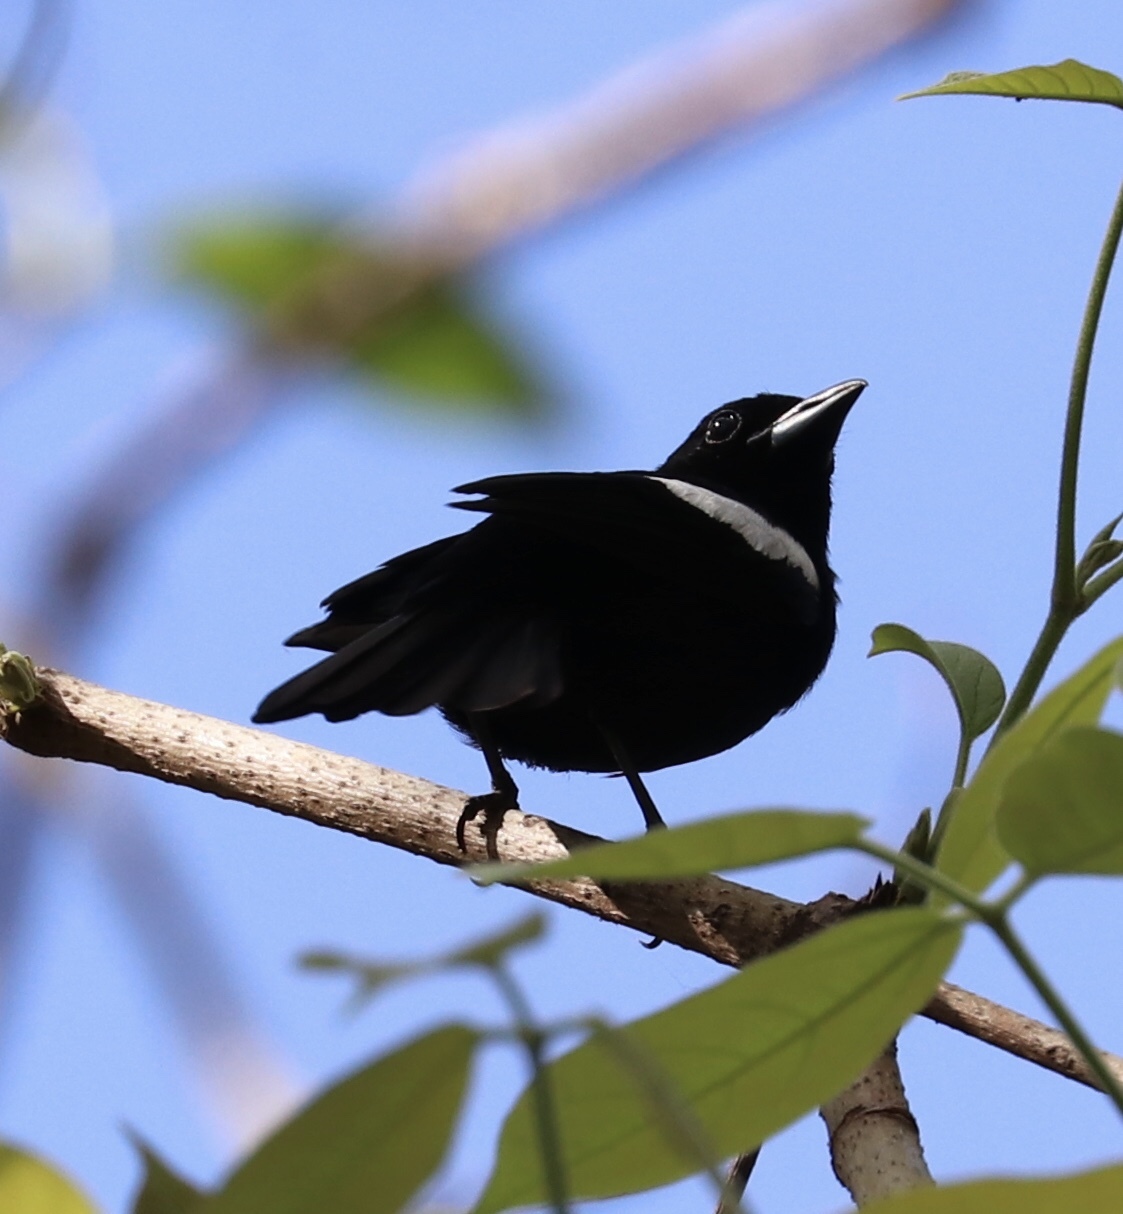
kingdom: Animalia
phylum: Chordata
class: Aves
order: Passeriformes
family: Thraupidae
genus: Loriotus
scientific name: Loriotus luctuosus
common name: White-shouldered tanager
